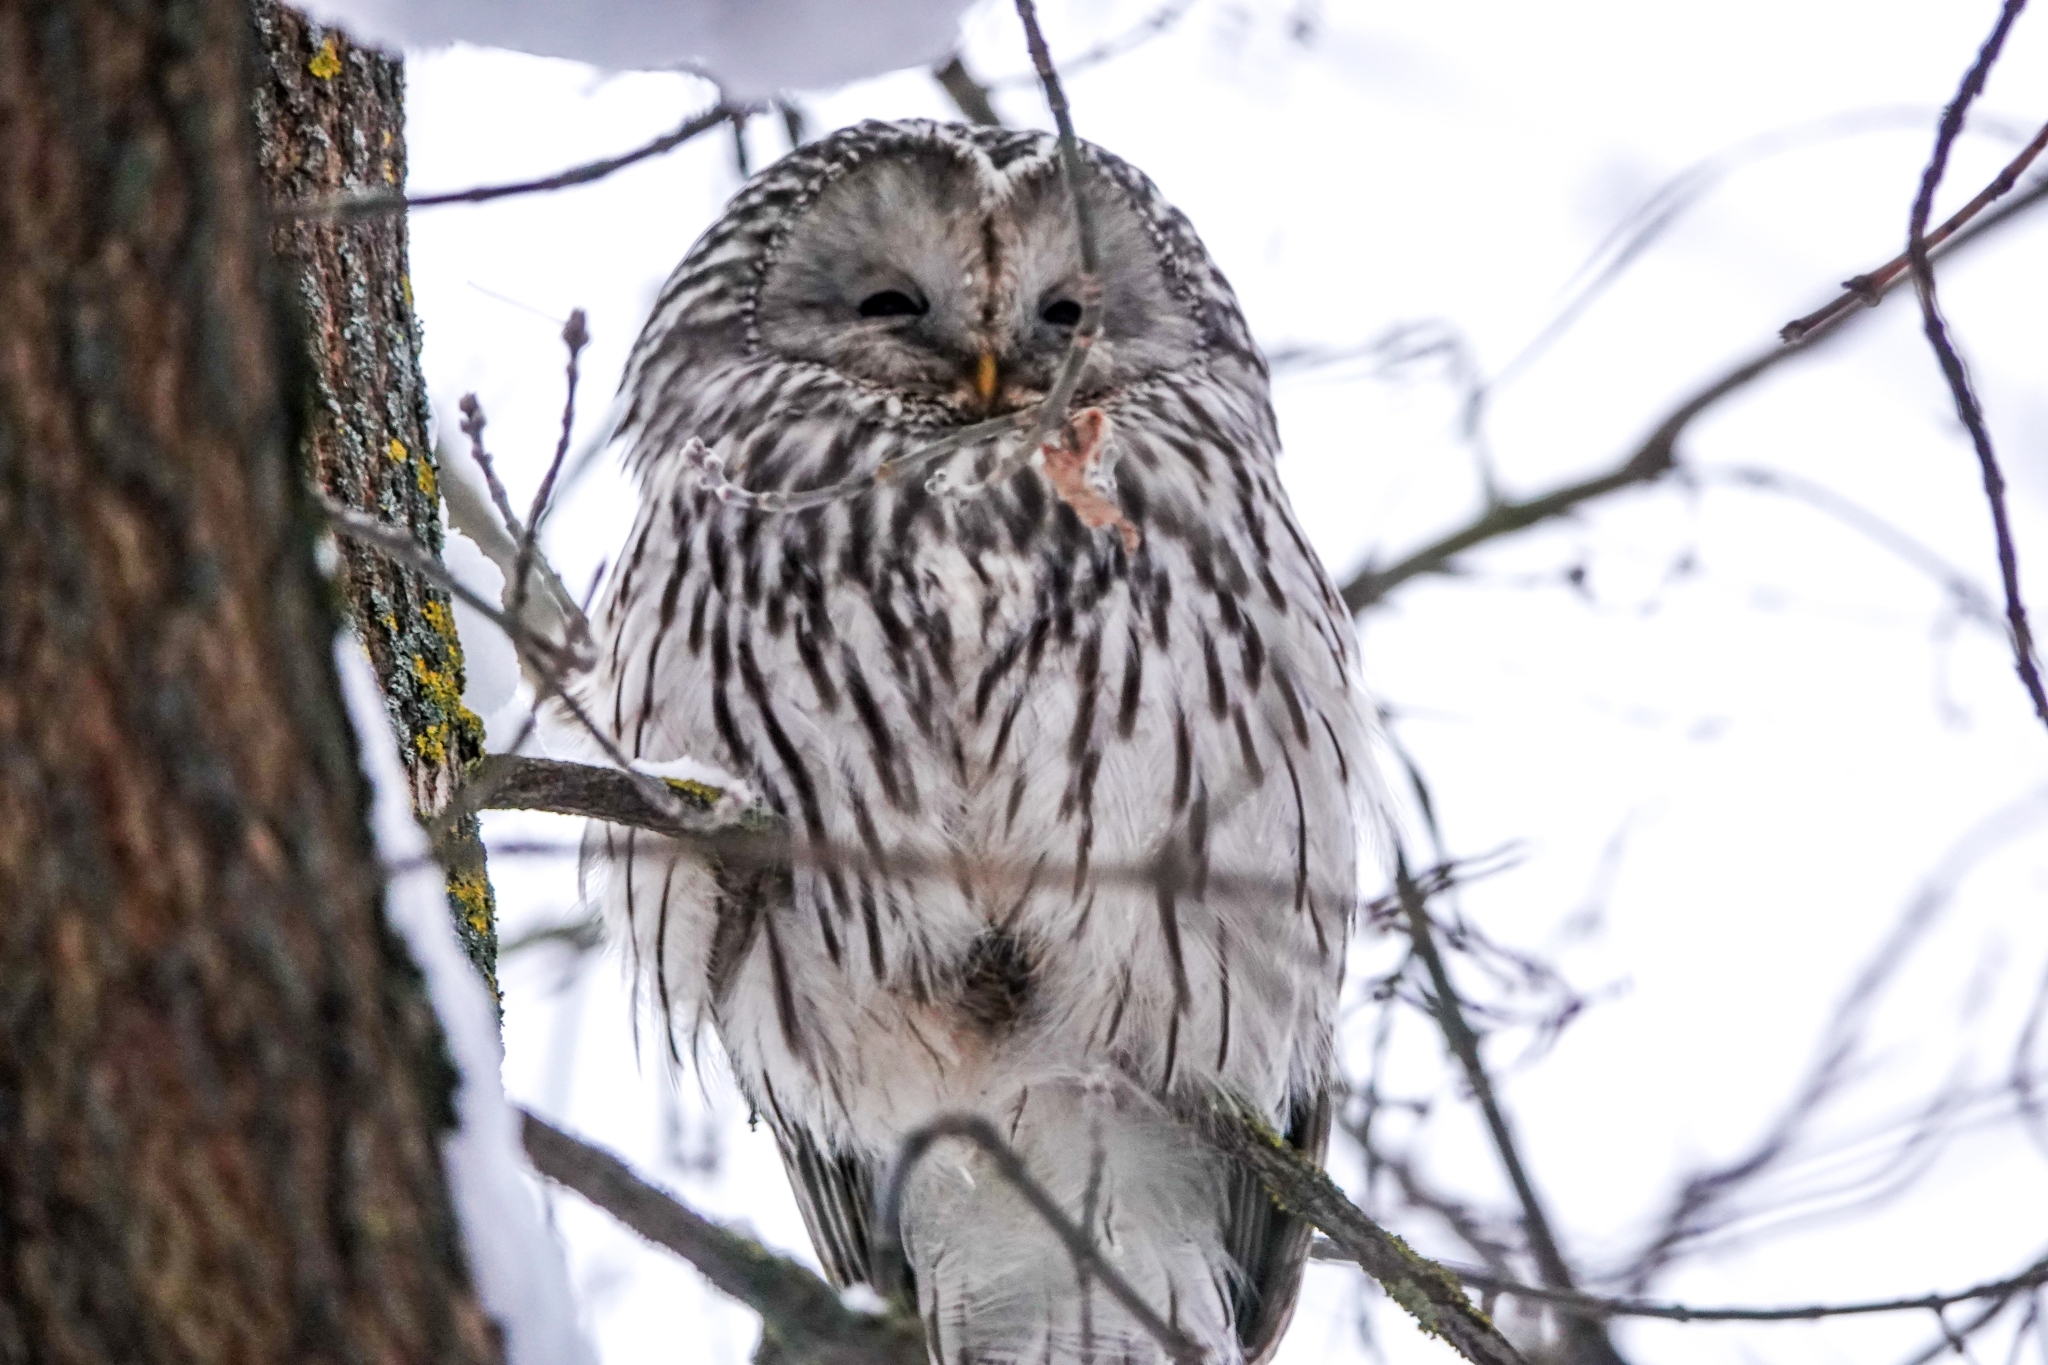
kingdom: Animalia
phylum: Chordata
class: Aves
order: Strigiformes
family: Strigidae
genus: Strix
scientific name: Strix uralensis
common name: Ural owl
